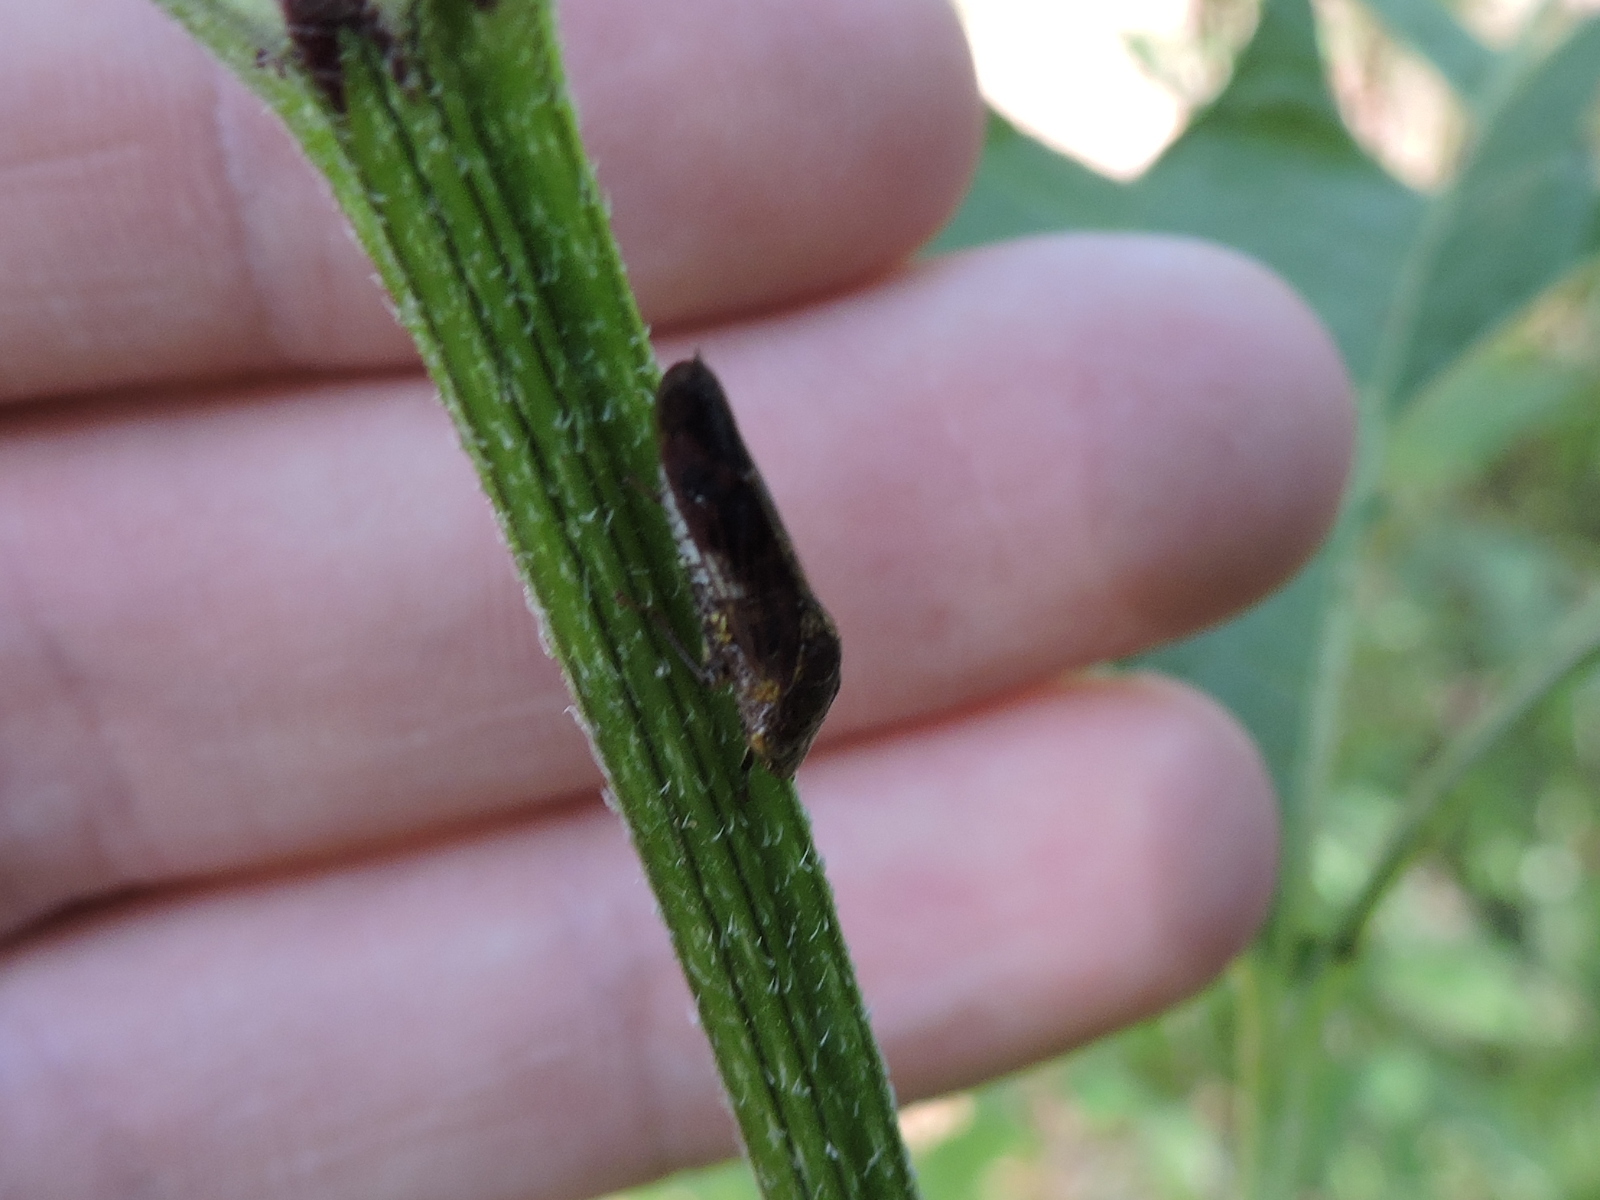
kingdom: Animalia
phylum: Arthropoda
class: Insecta
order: Hemiptera
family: Cicadellidae
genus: Homalodisca
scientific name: Homalodisca vitripennis
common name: Glassy-winged sharpshooter
